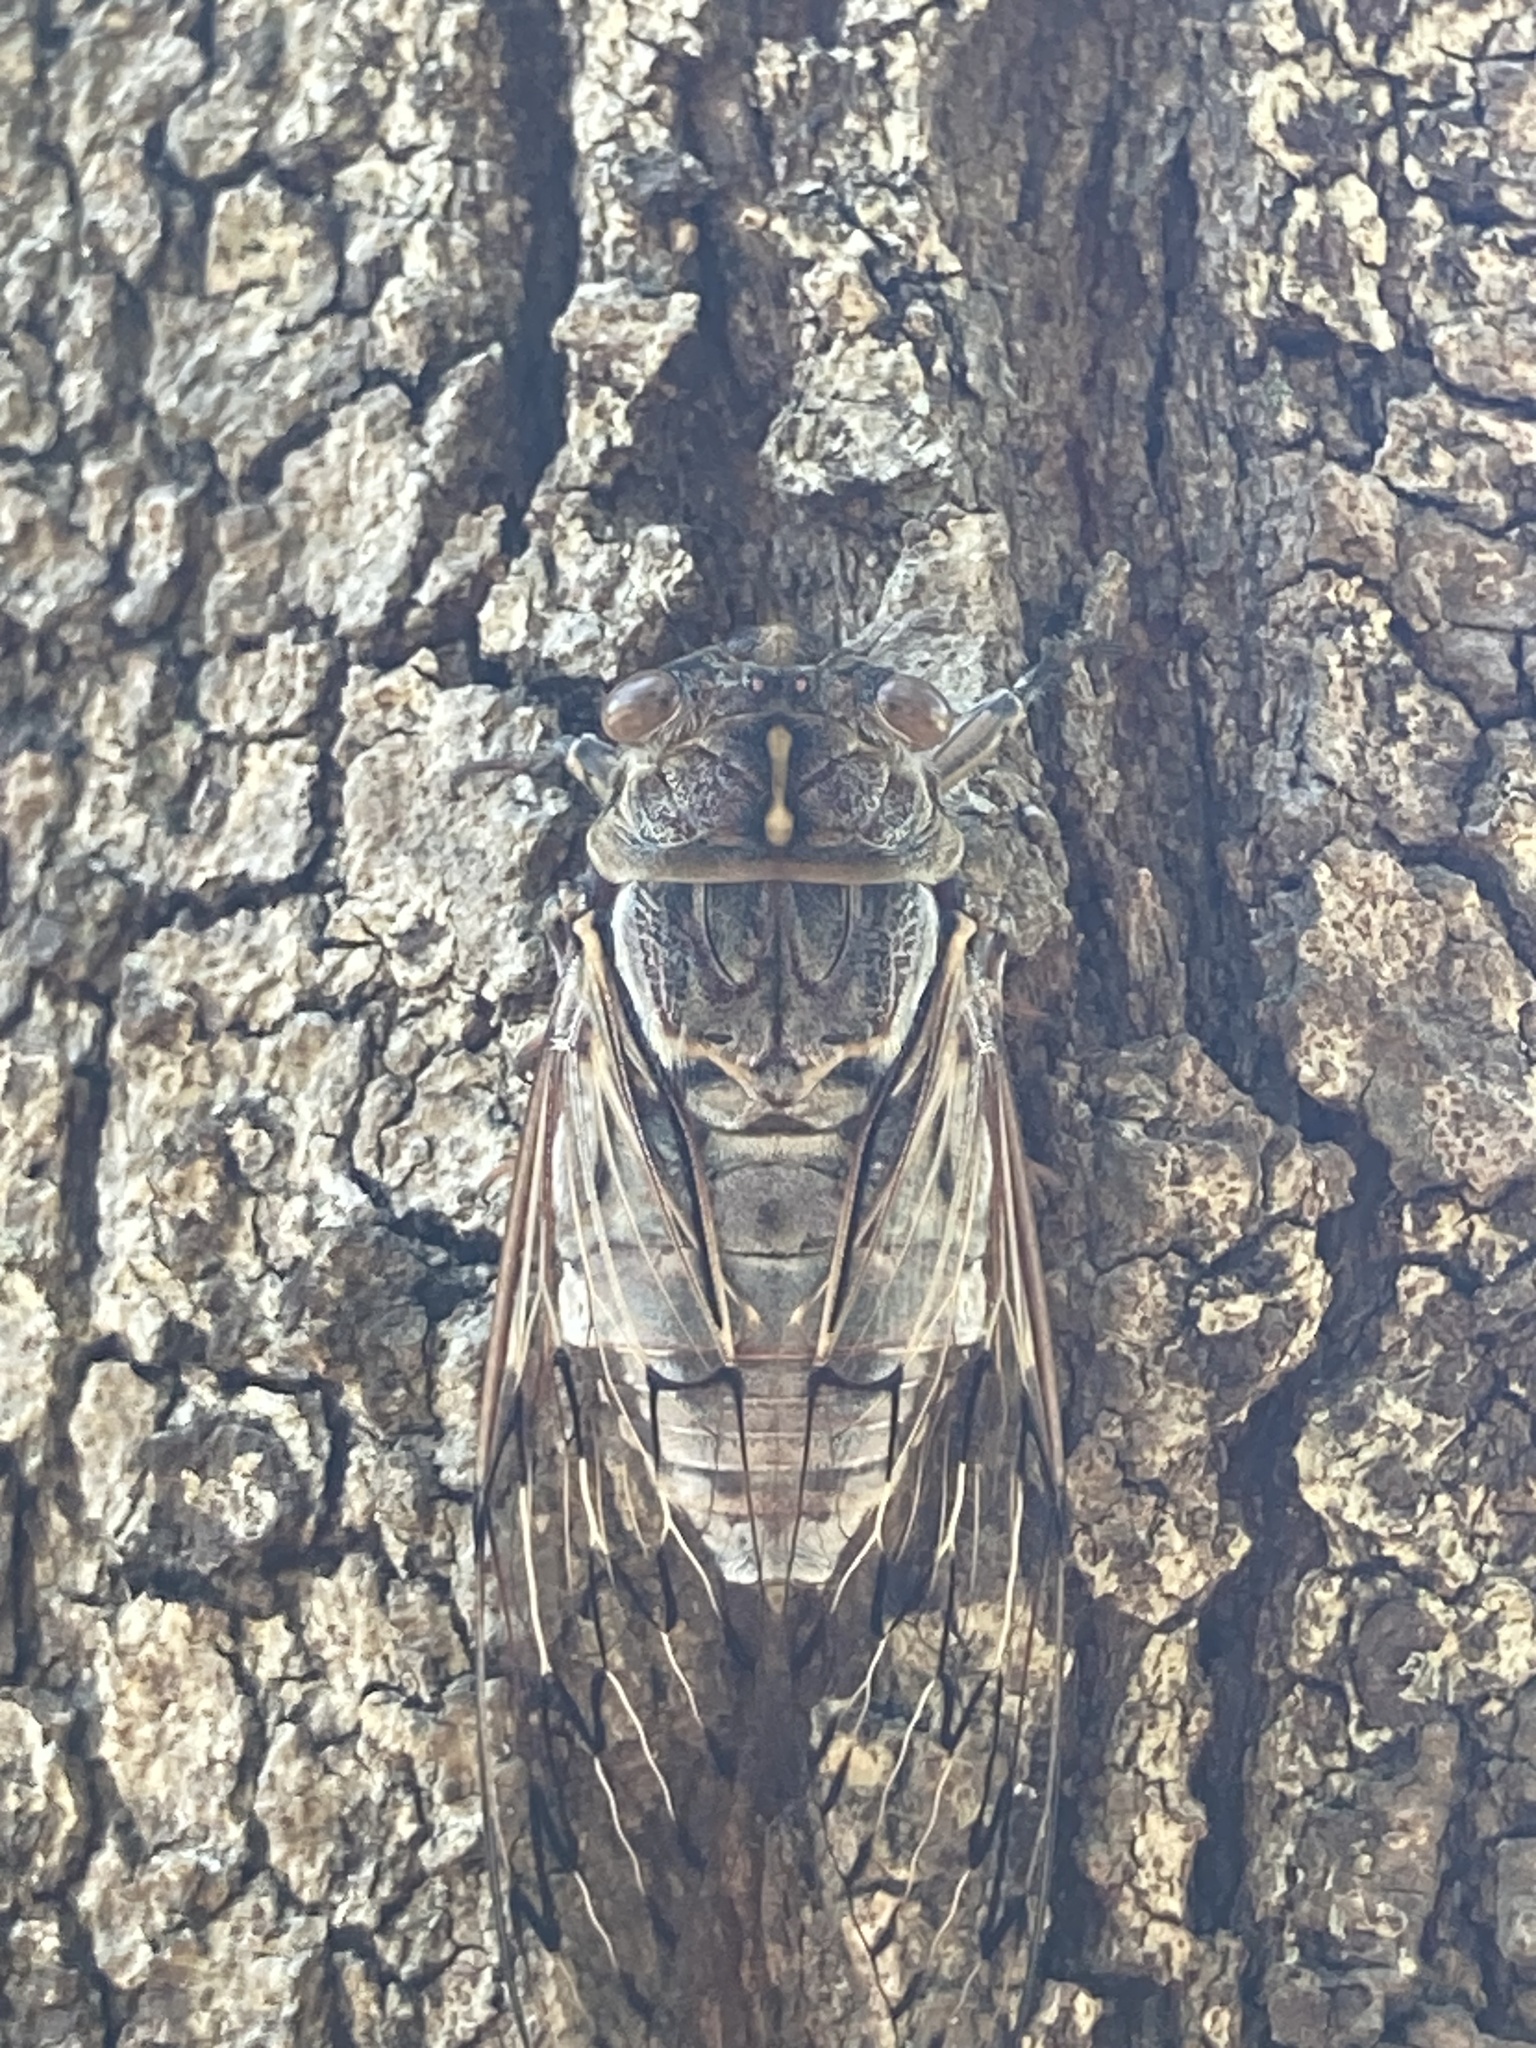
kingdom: Animalia
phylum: Arthropoda
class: Insecta
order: Hemiptera
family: Cicadidae
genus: Henicopsaltria
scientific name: Henicopsaltria eydouxii
